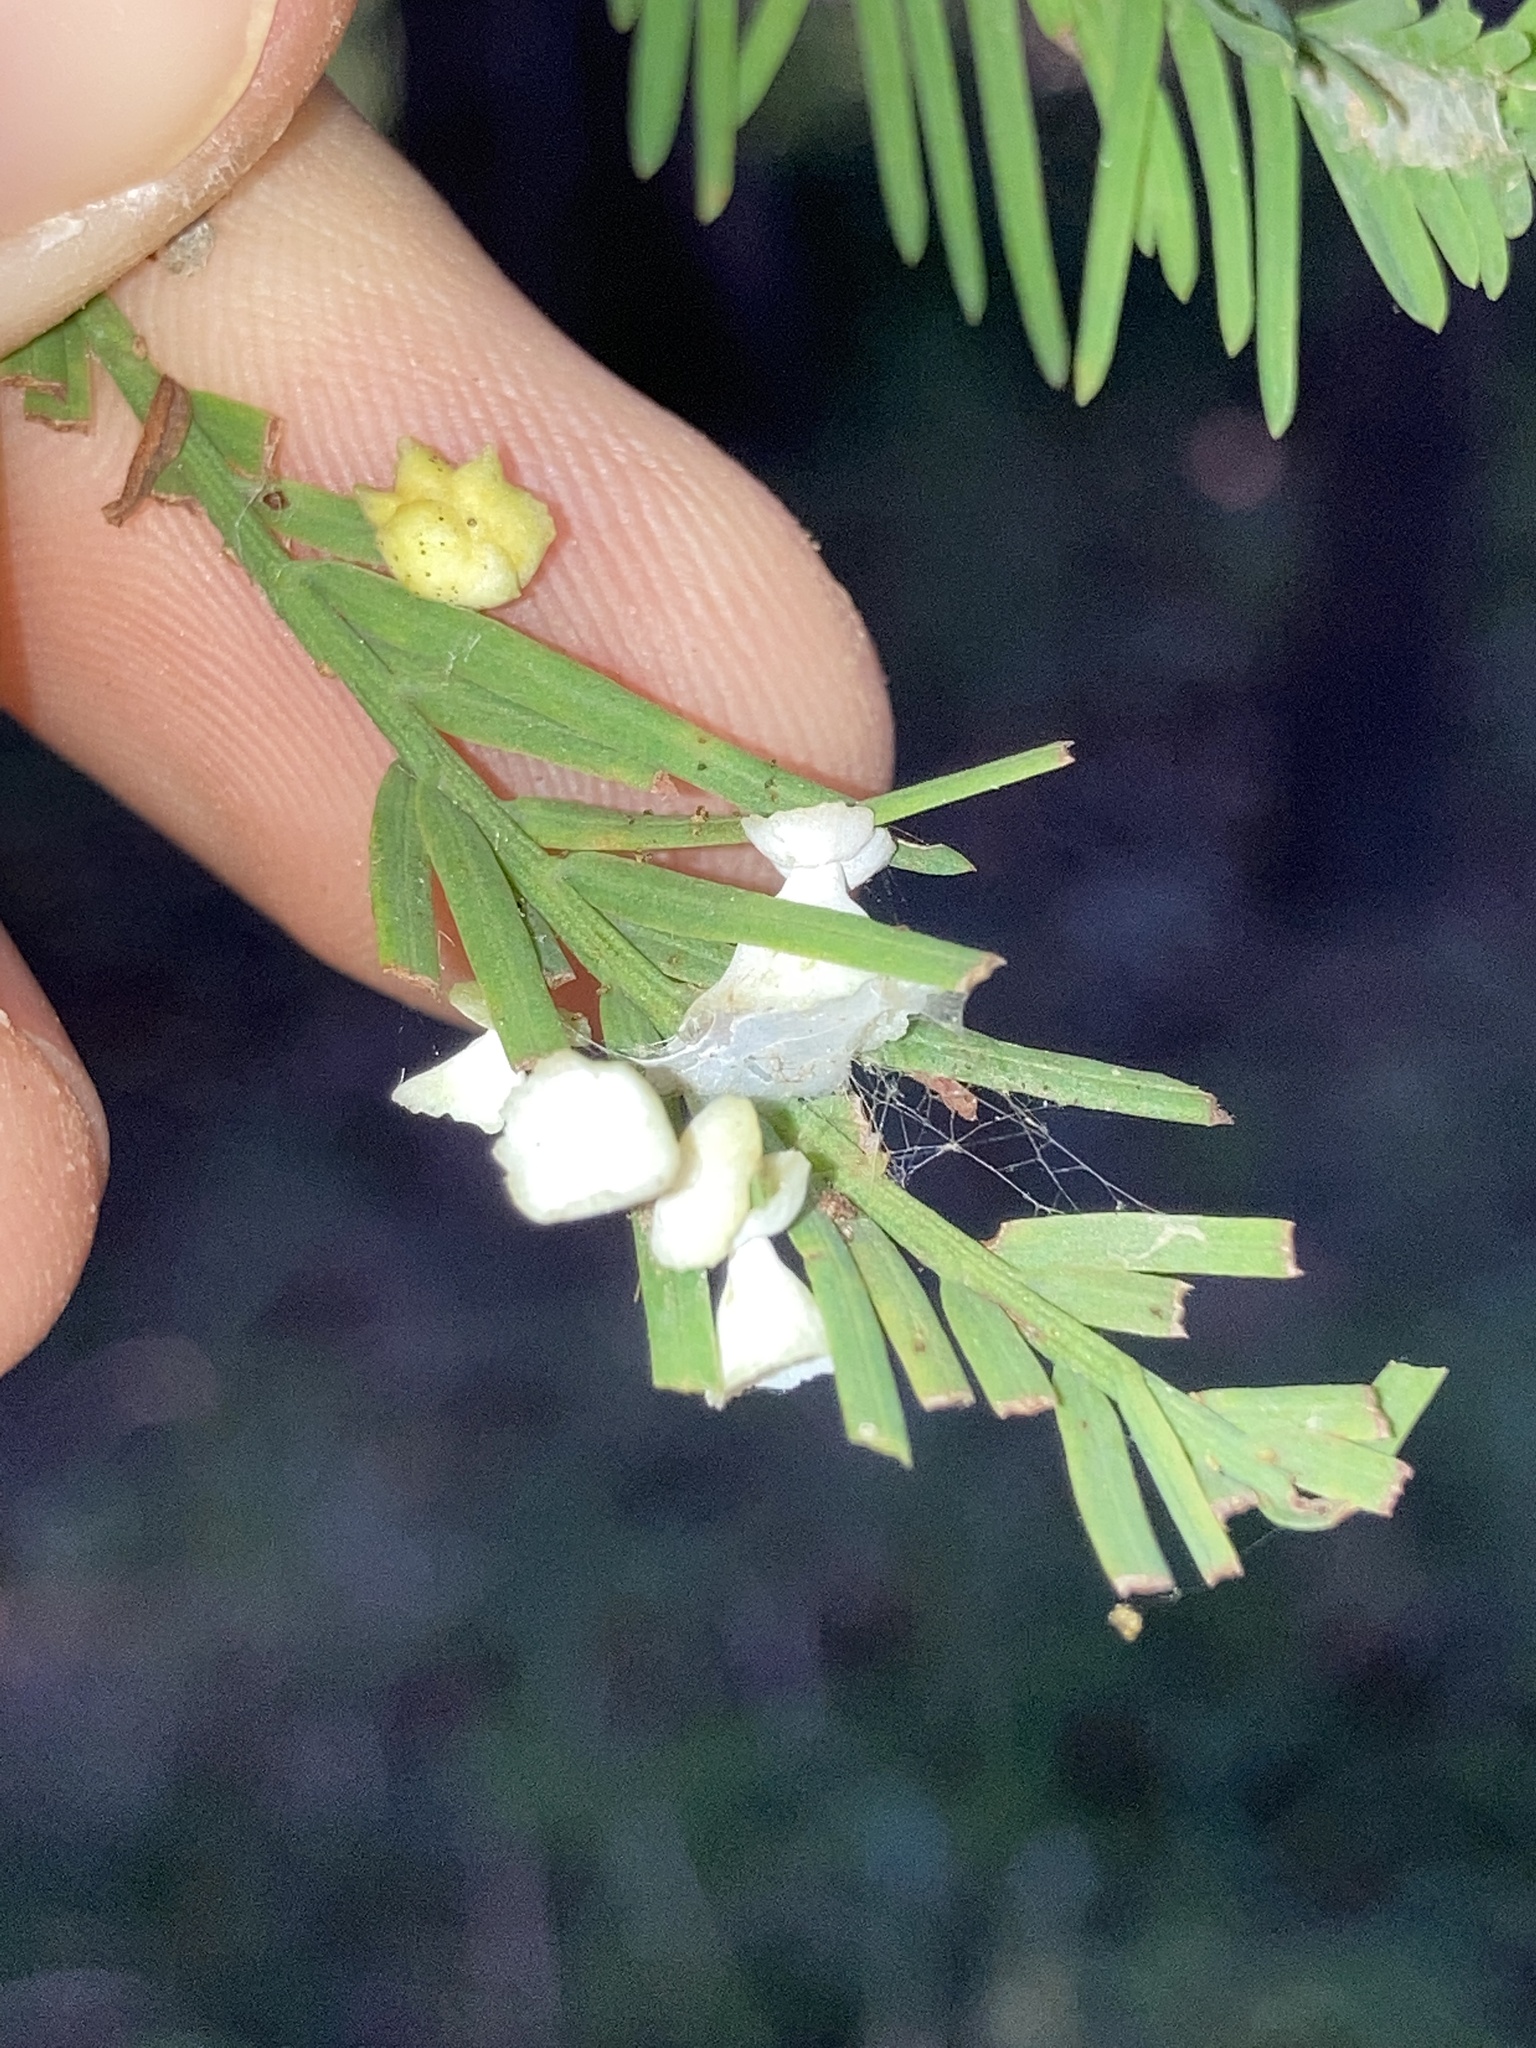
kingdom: Animalia
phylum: Arthropoda
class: Insecta
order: Diptera
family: Cecidomyiidae
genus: Taxodiomyia
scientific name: Taxodiomyia cupressi
